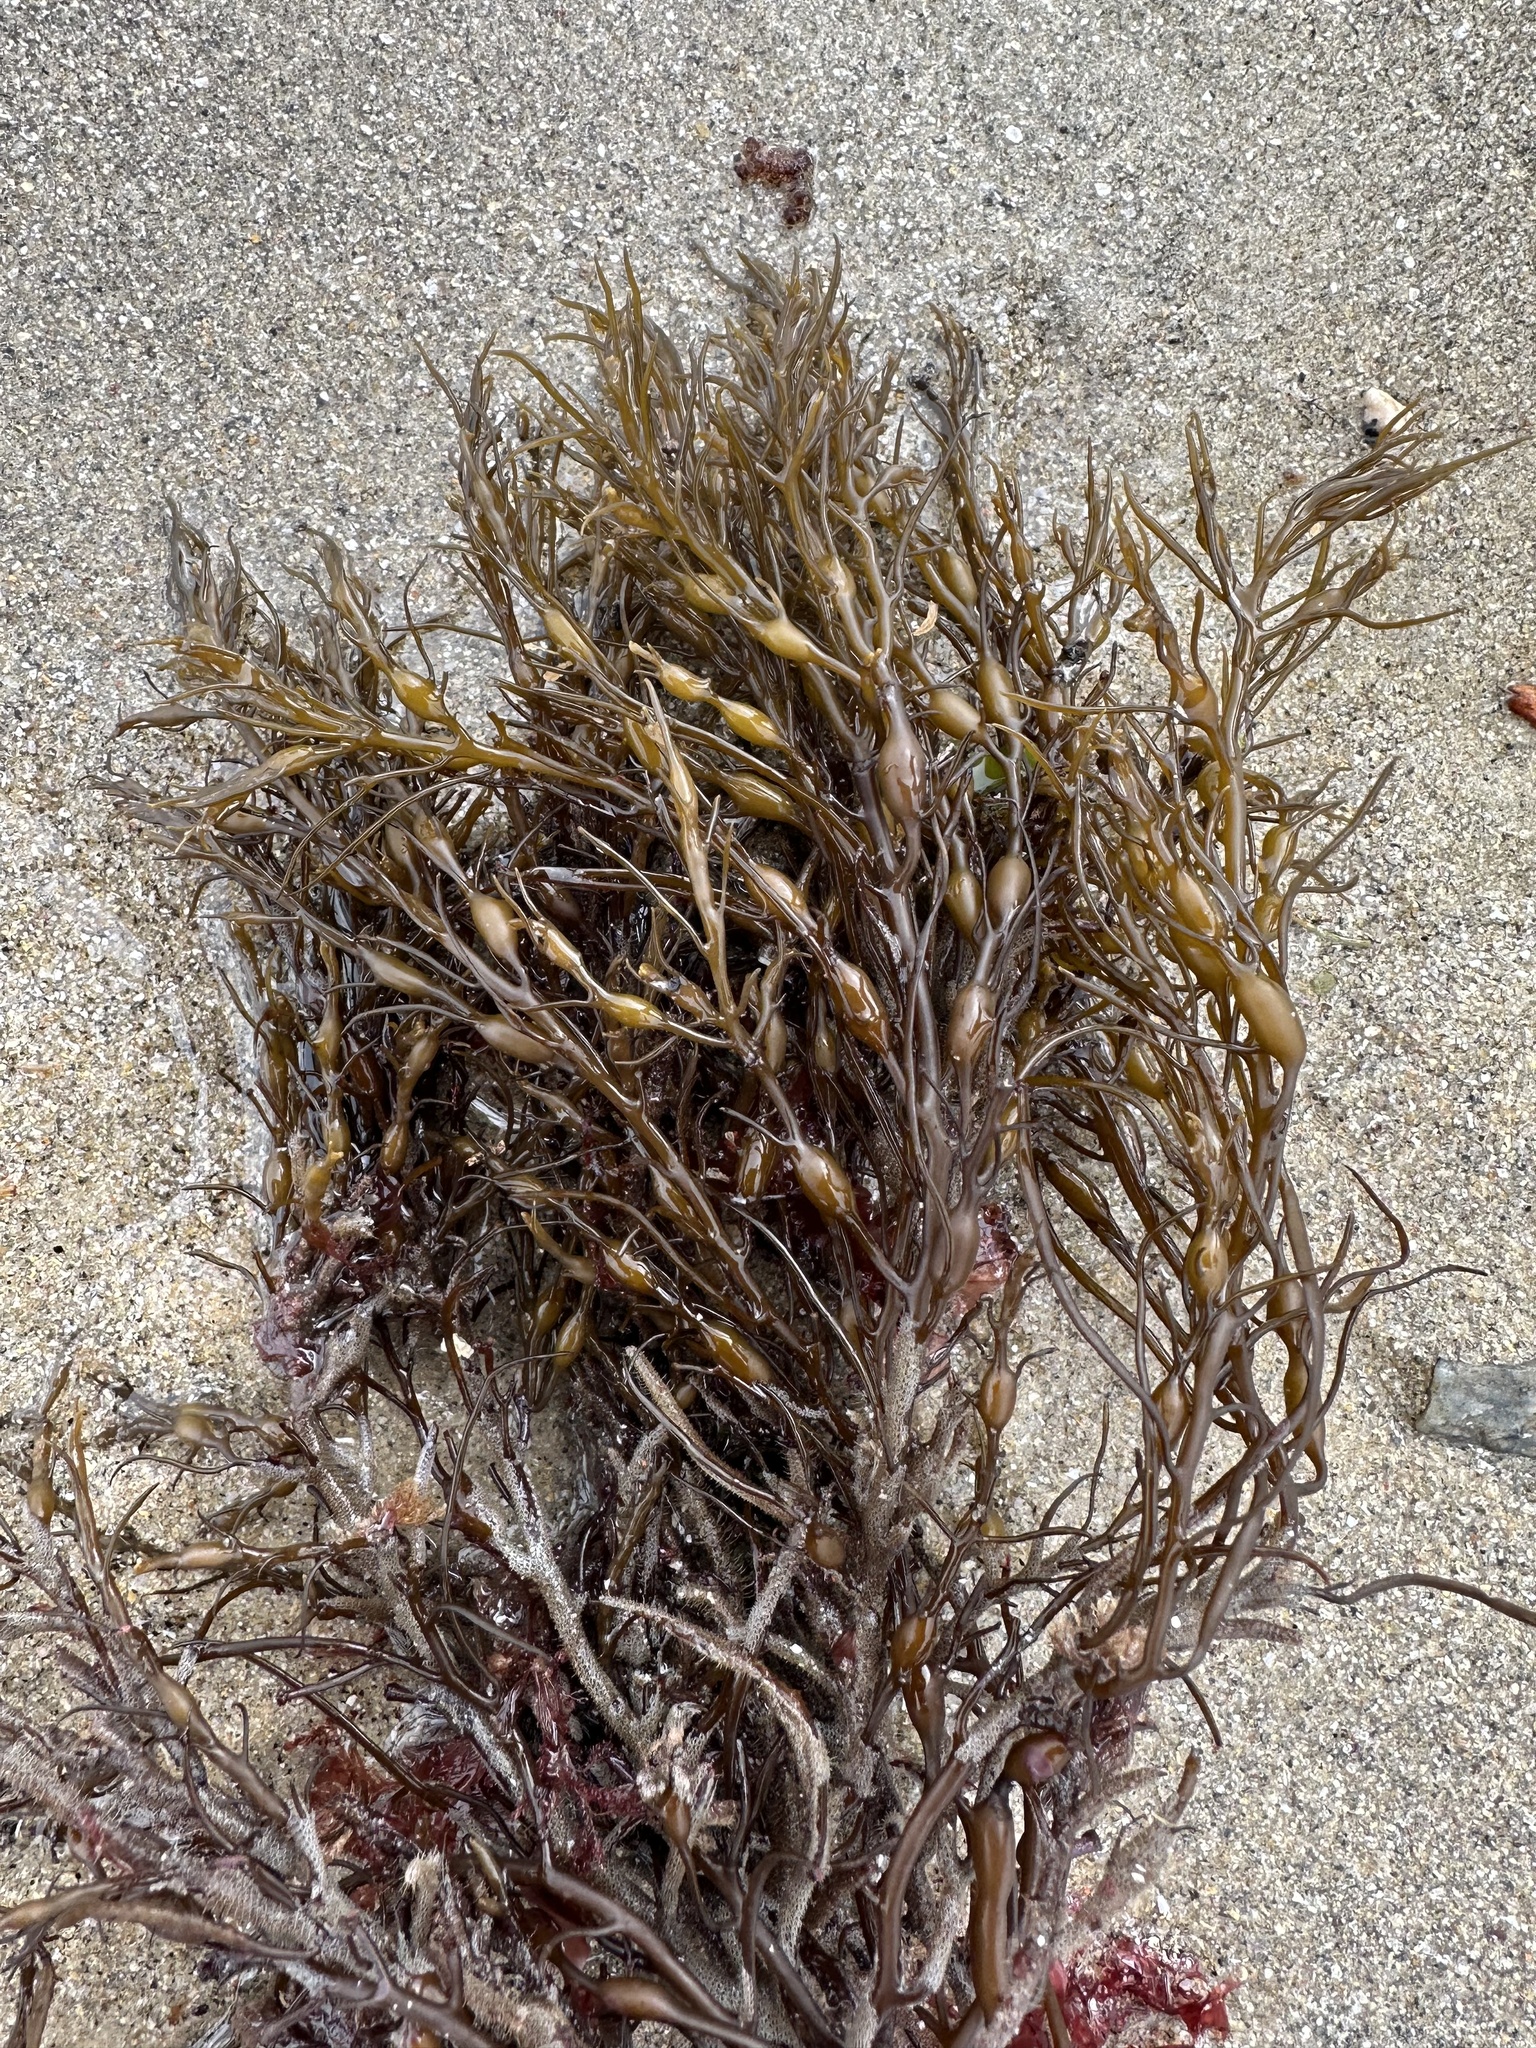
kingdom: Chromista
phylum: Ochrophyta
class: Phaeophyceae
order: Fucales
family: Sargassaceae
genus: Cystoseira
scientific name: Cystoseira Gongolaria baccata
